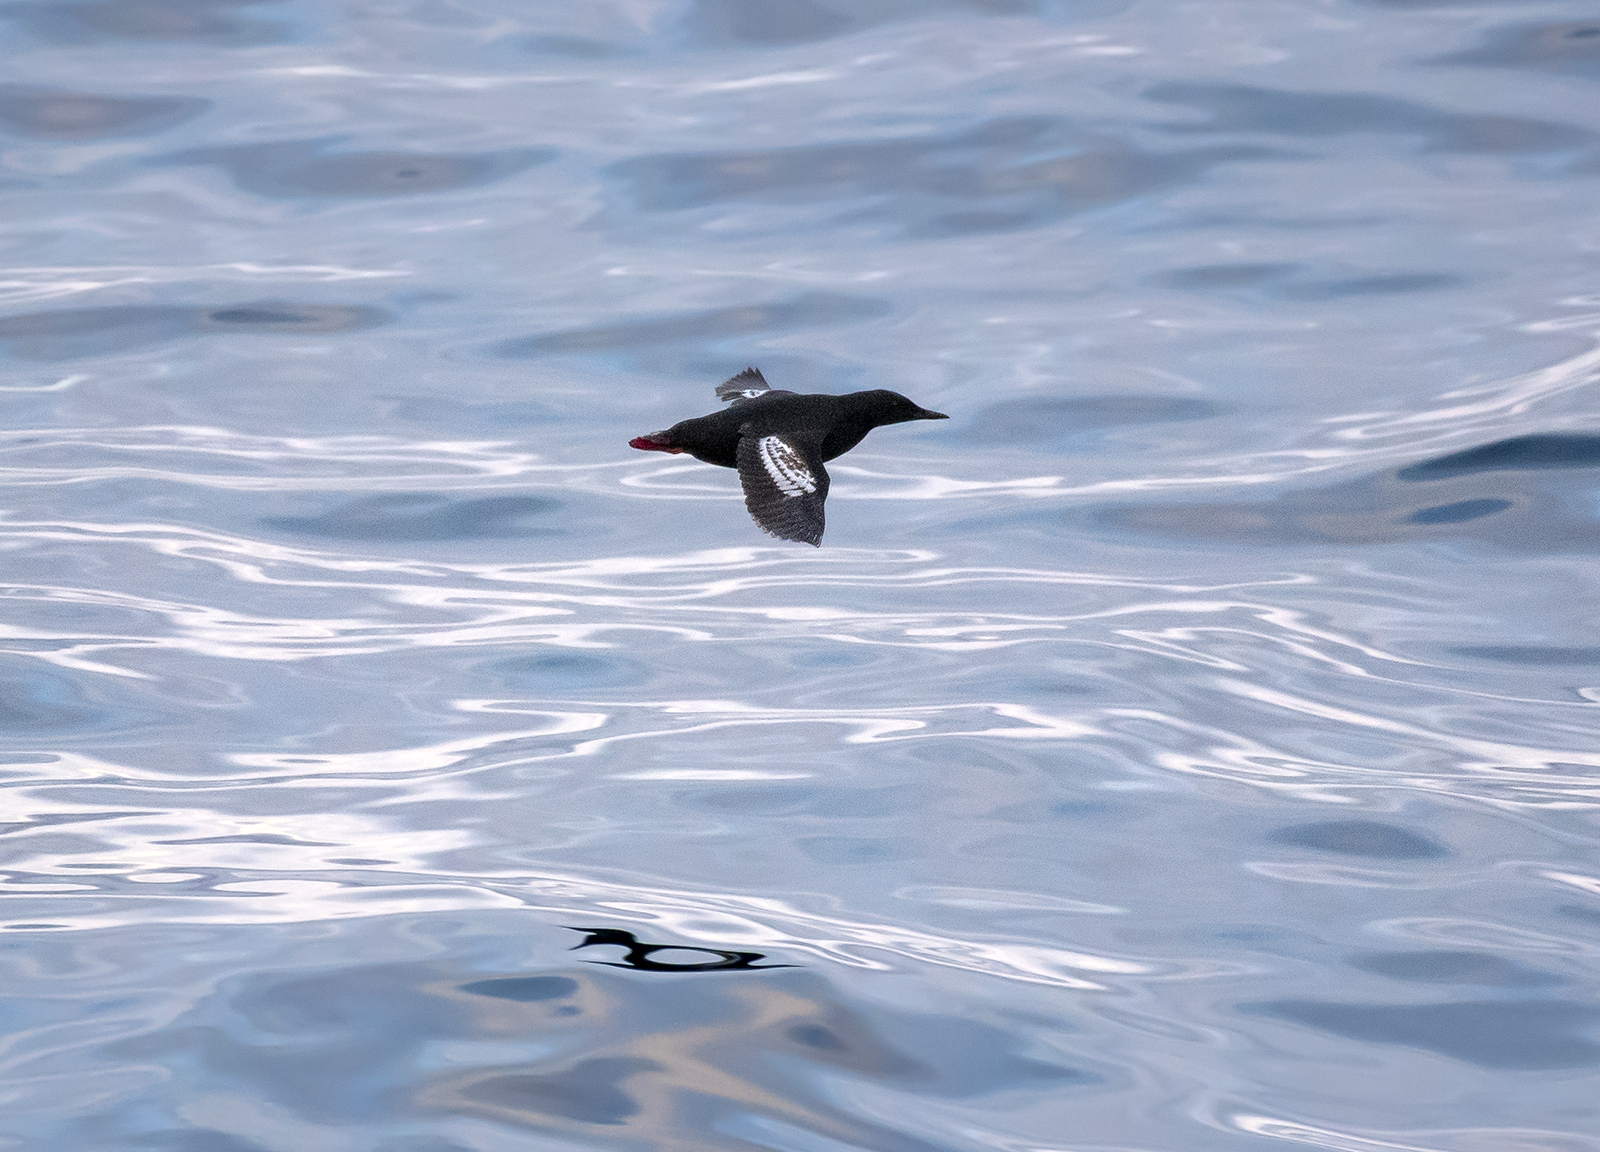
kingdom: Animalia
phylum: Chordata
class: Aves
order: Charadriiformes
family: Alcidae
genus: Cepphus
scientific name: Cepphus grylle
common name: Black guillemot
